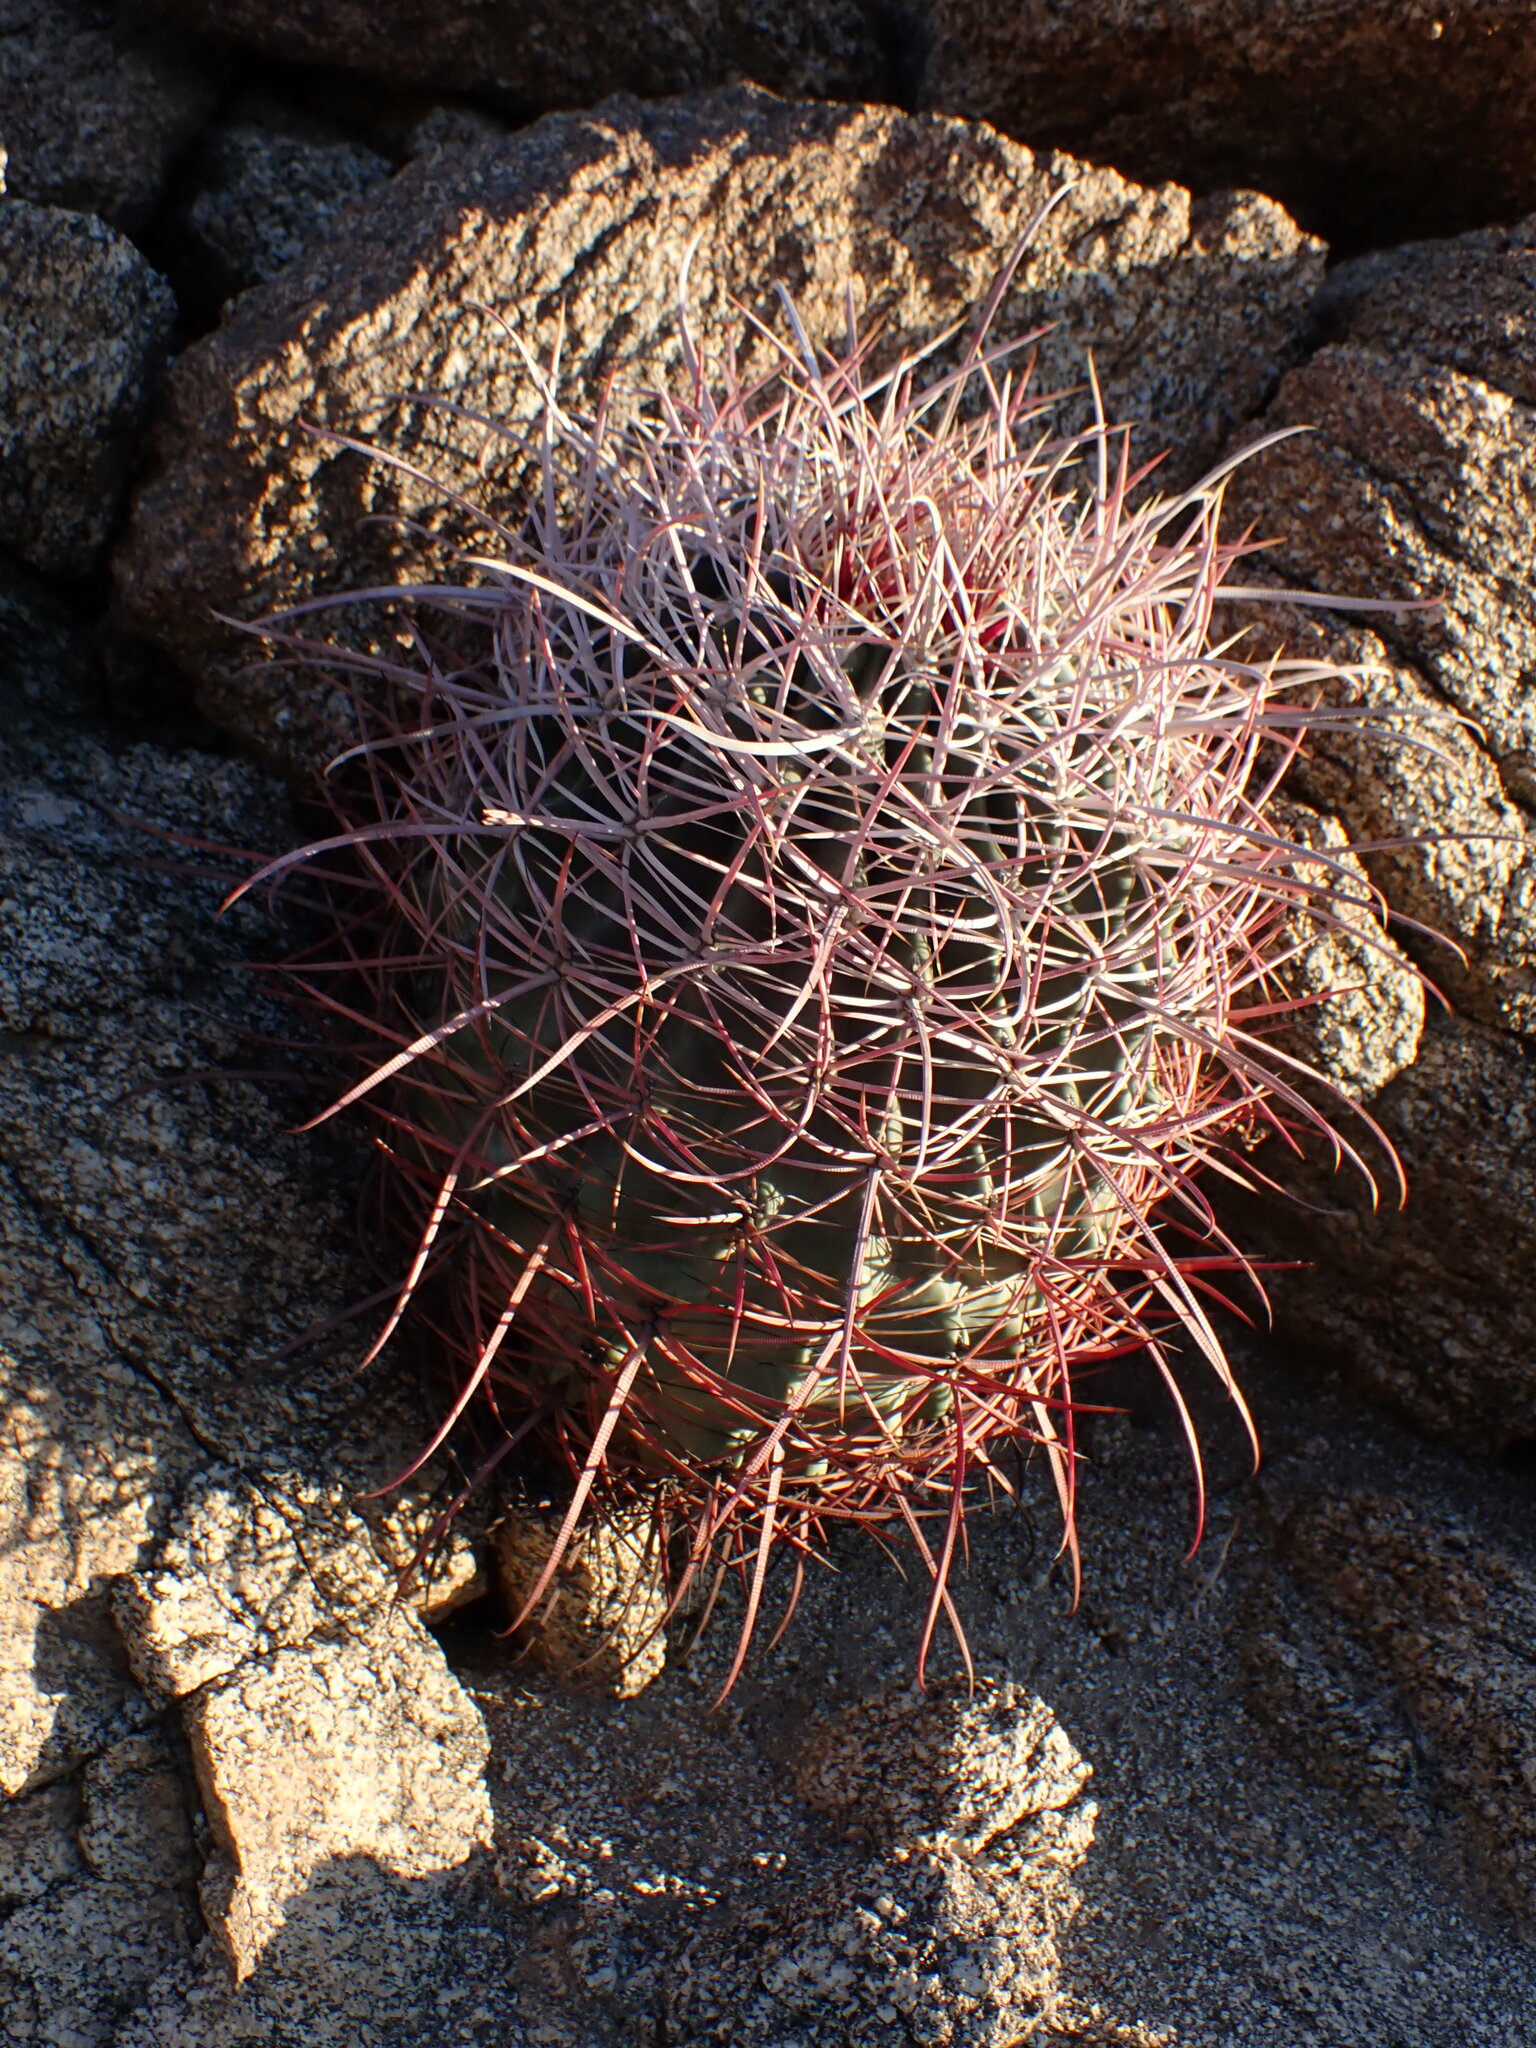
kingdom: Plantae
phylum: Tracheophyta
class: Magnoliopsida
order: Caryophyllales
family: Cactaceae
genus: Ferocactus
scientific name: Ferocactus cylindraceus
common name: California barrel cactus
